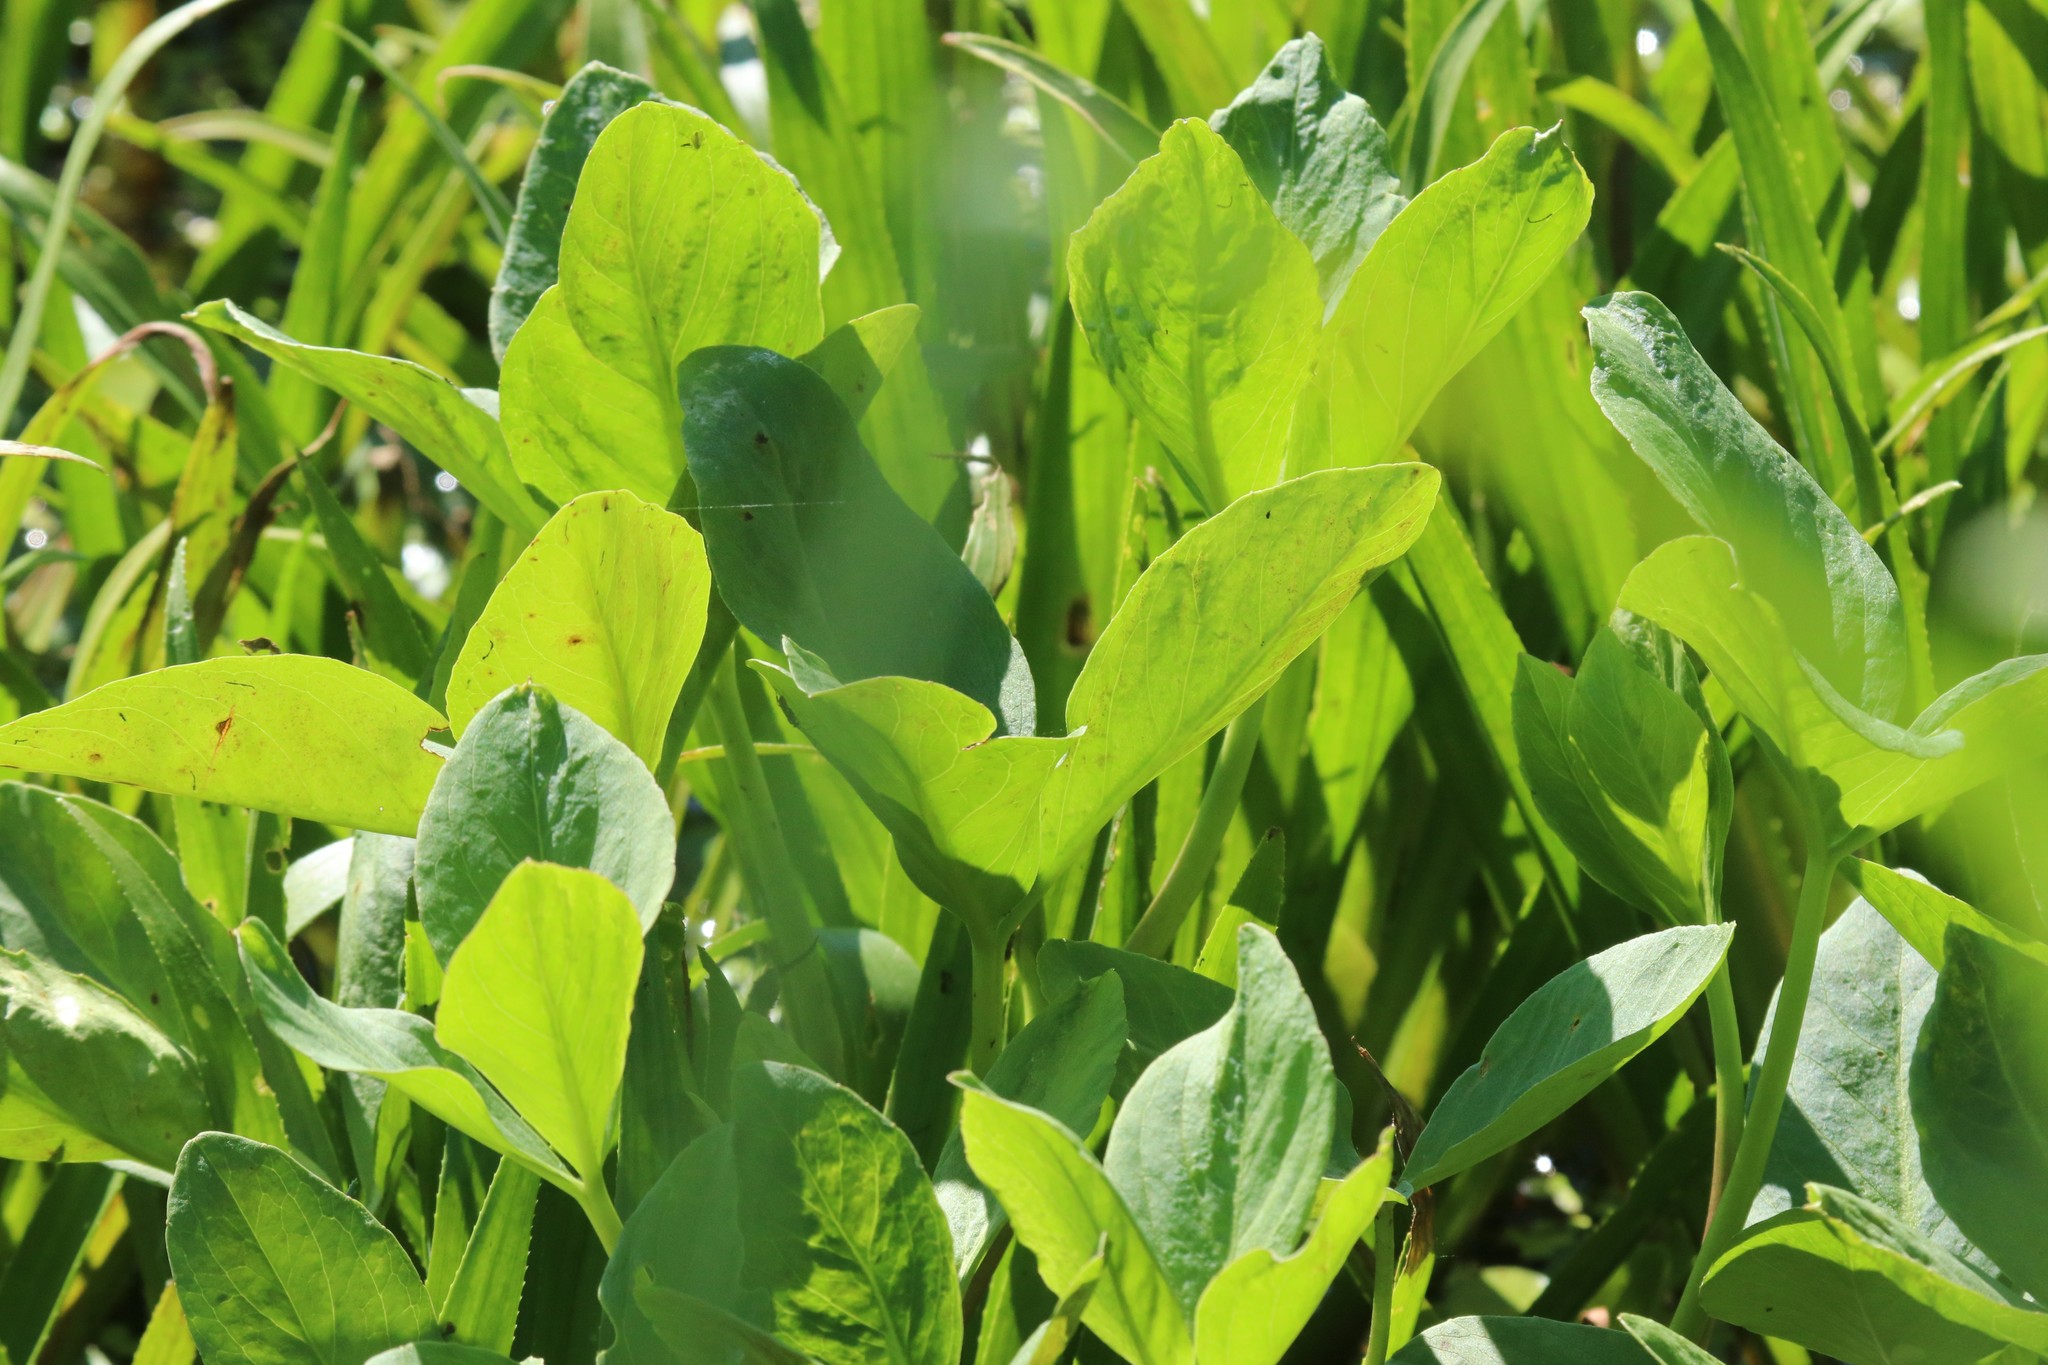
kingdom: Plantae
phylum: Tracheophyta
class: Magnoliopsida
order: Asterales
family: Menyanthaceae
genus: Menyanthes
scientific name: Menyanthes trifoliata
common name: Bogbean
